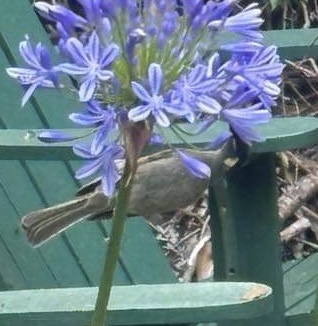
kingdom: Animalia
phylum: Chordata
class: Aves
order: Passeriformes
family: Meliphagidae
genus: Meliphaga
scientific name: Meliphaga lewinii
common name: Lewin's honeyeater
